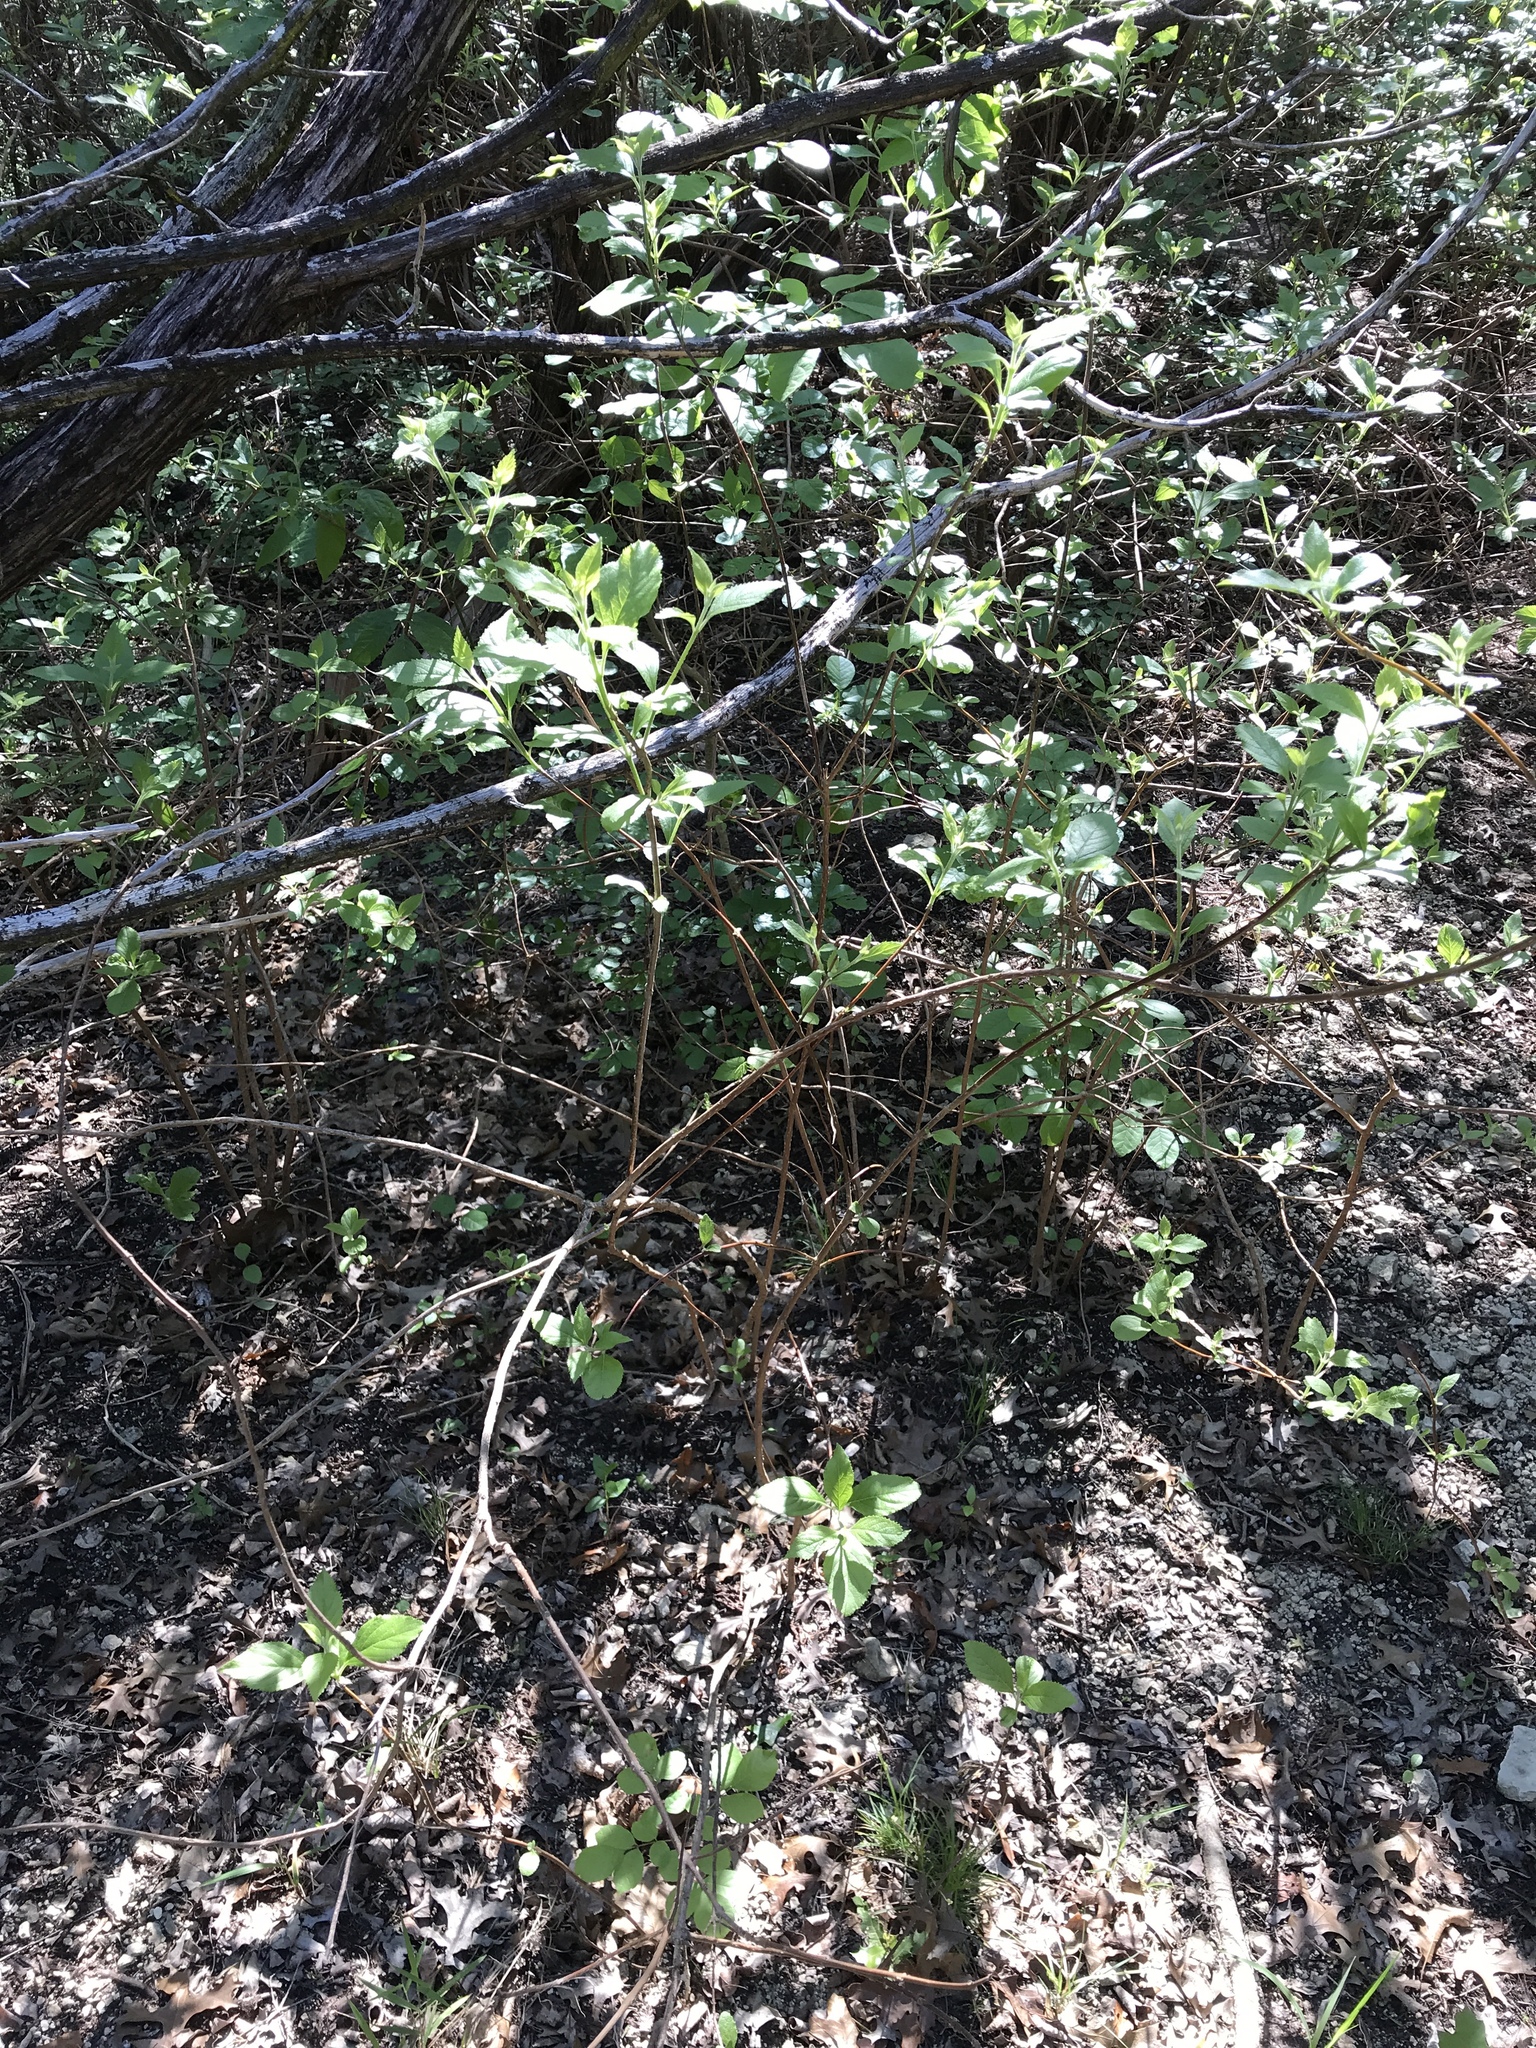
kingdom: Plantae
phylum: Tracheophyta
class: Magnoliopsida
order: Lamiales
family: Lamiaceae
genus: Callicarpa
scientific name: Callicarpa americana
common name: American beautyberry
